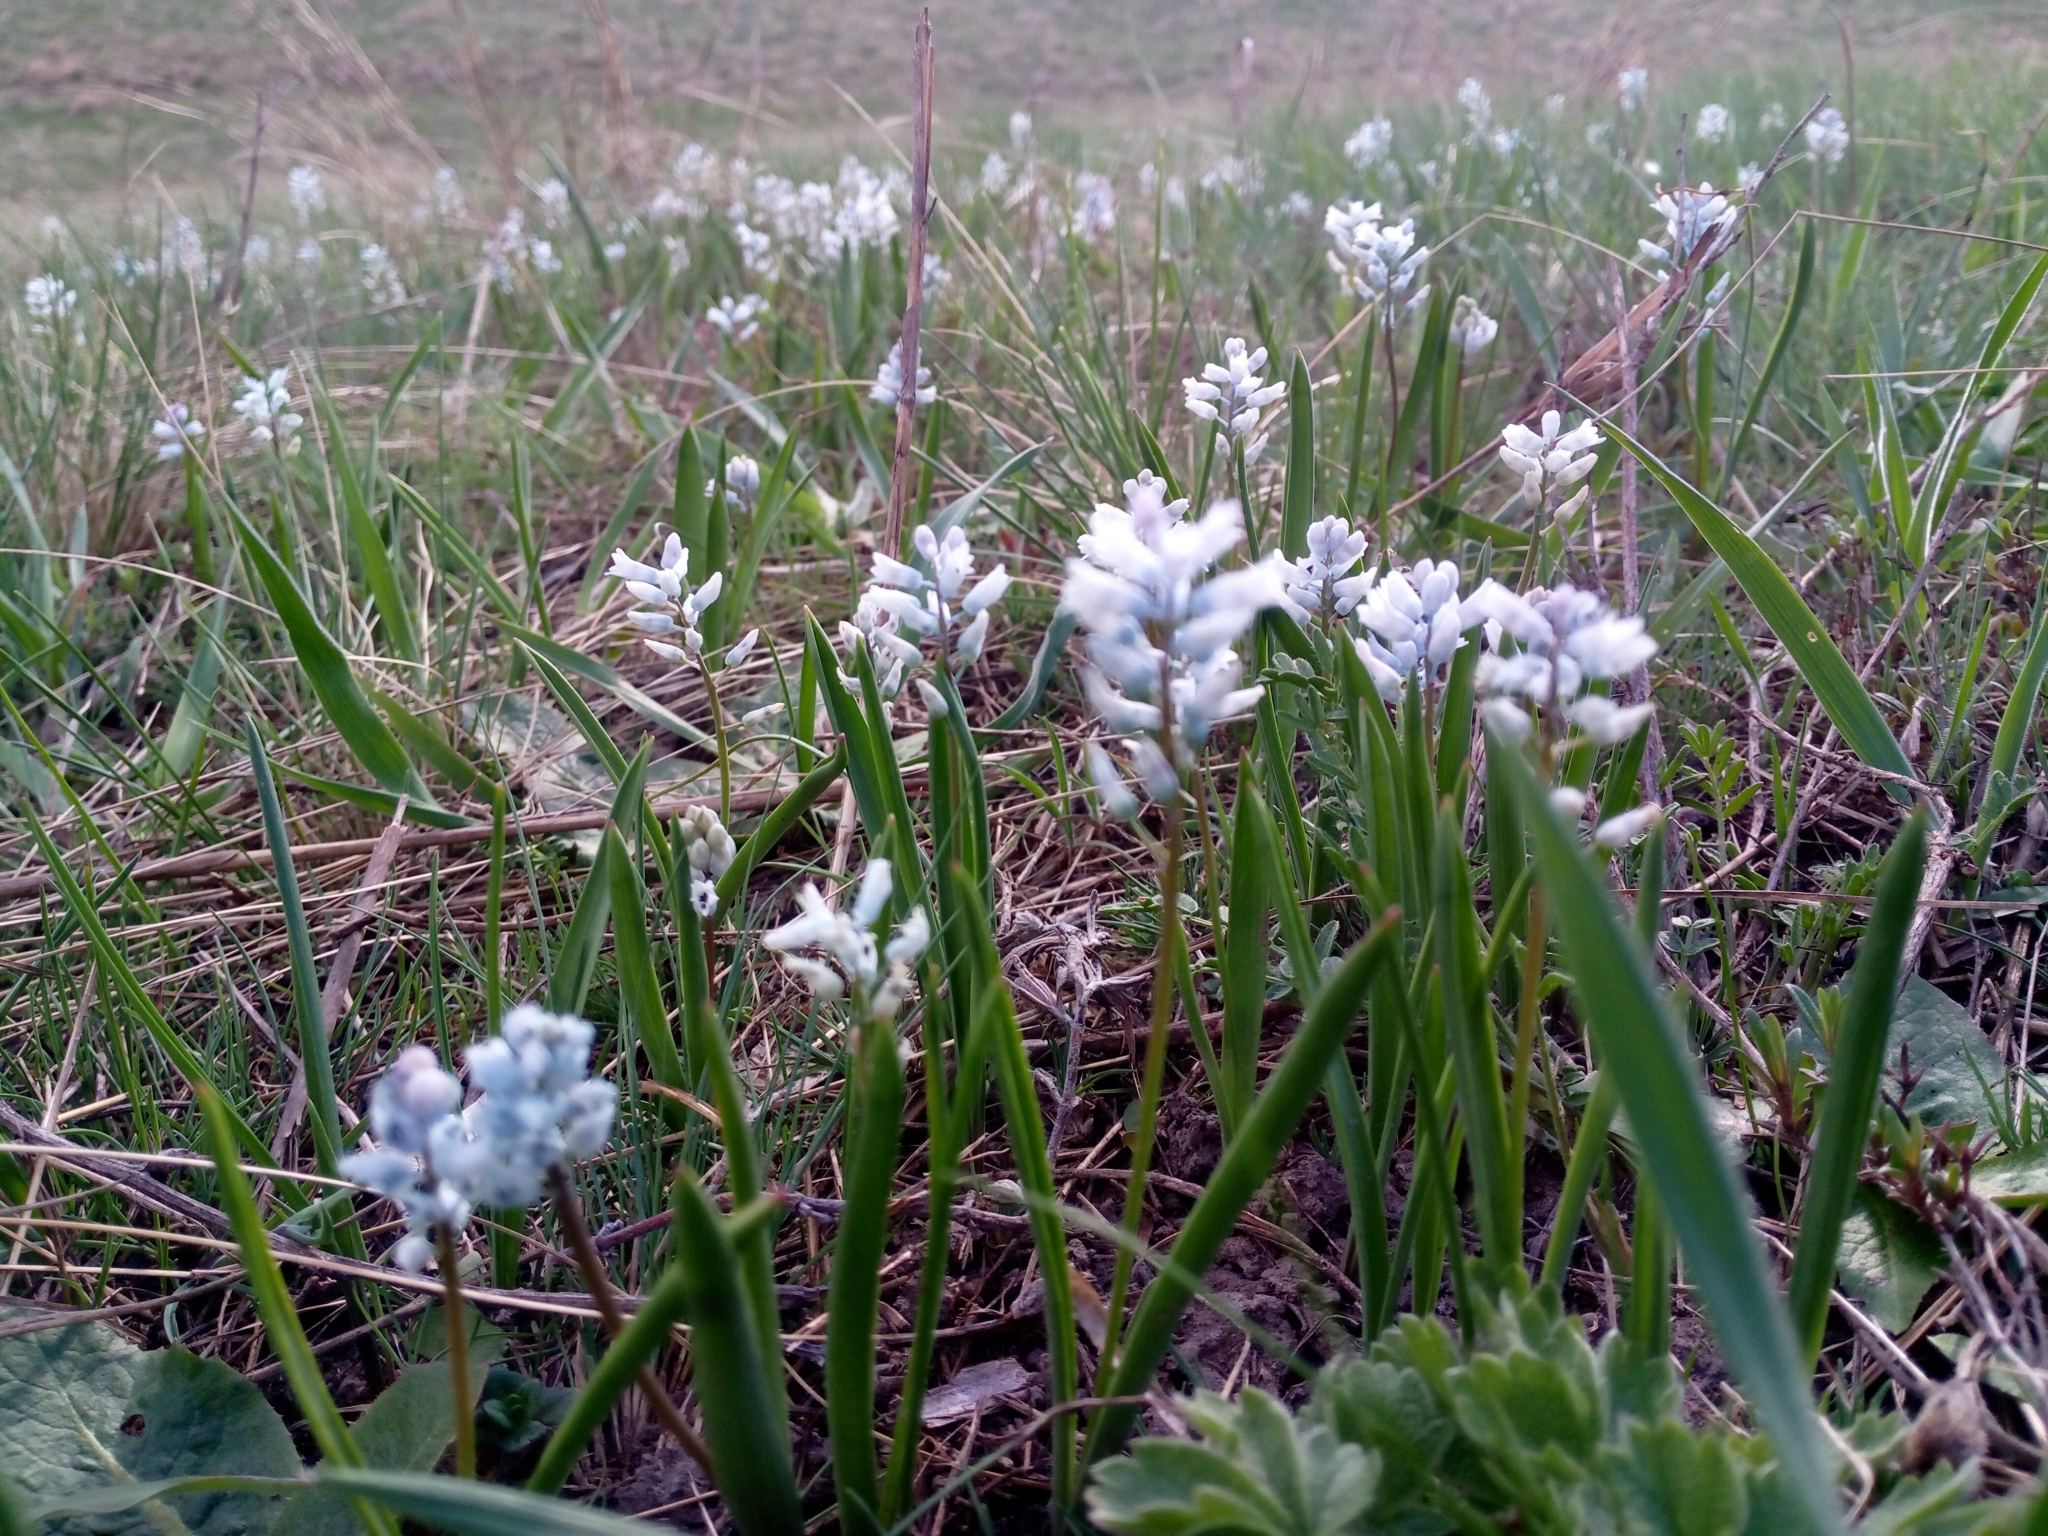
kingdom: Plantae
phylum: Tracheophyta
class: Liliopsida
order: Asparagales
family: Asparagaceae
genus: Hyacinthella
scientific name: Hyacinthella leucophaea
